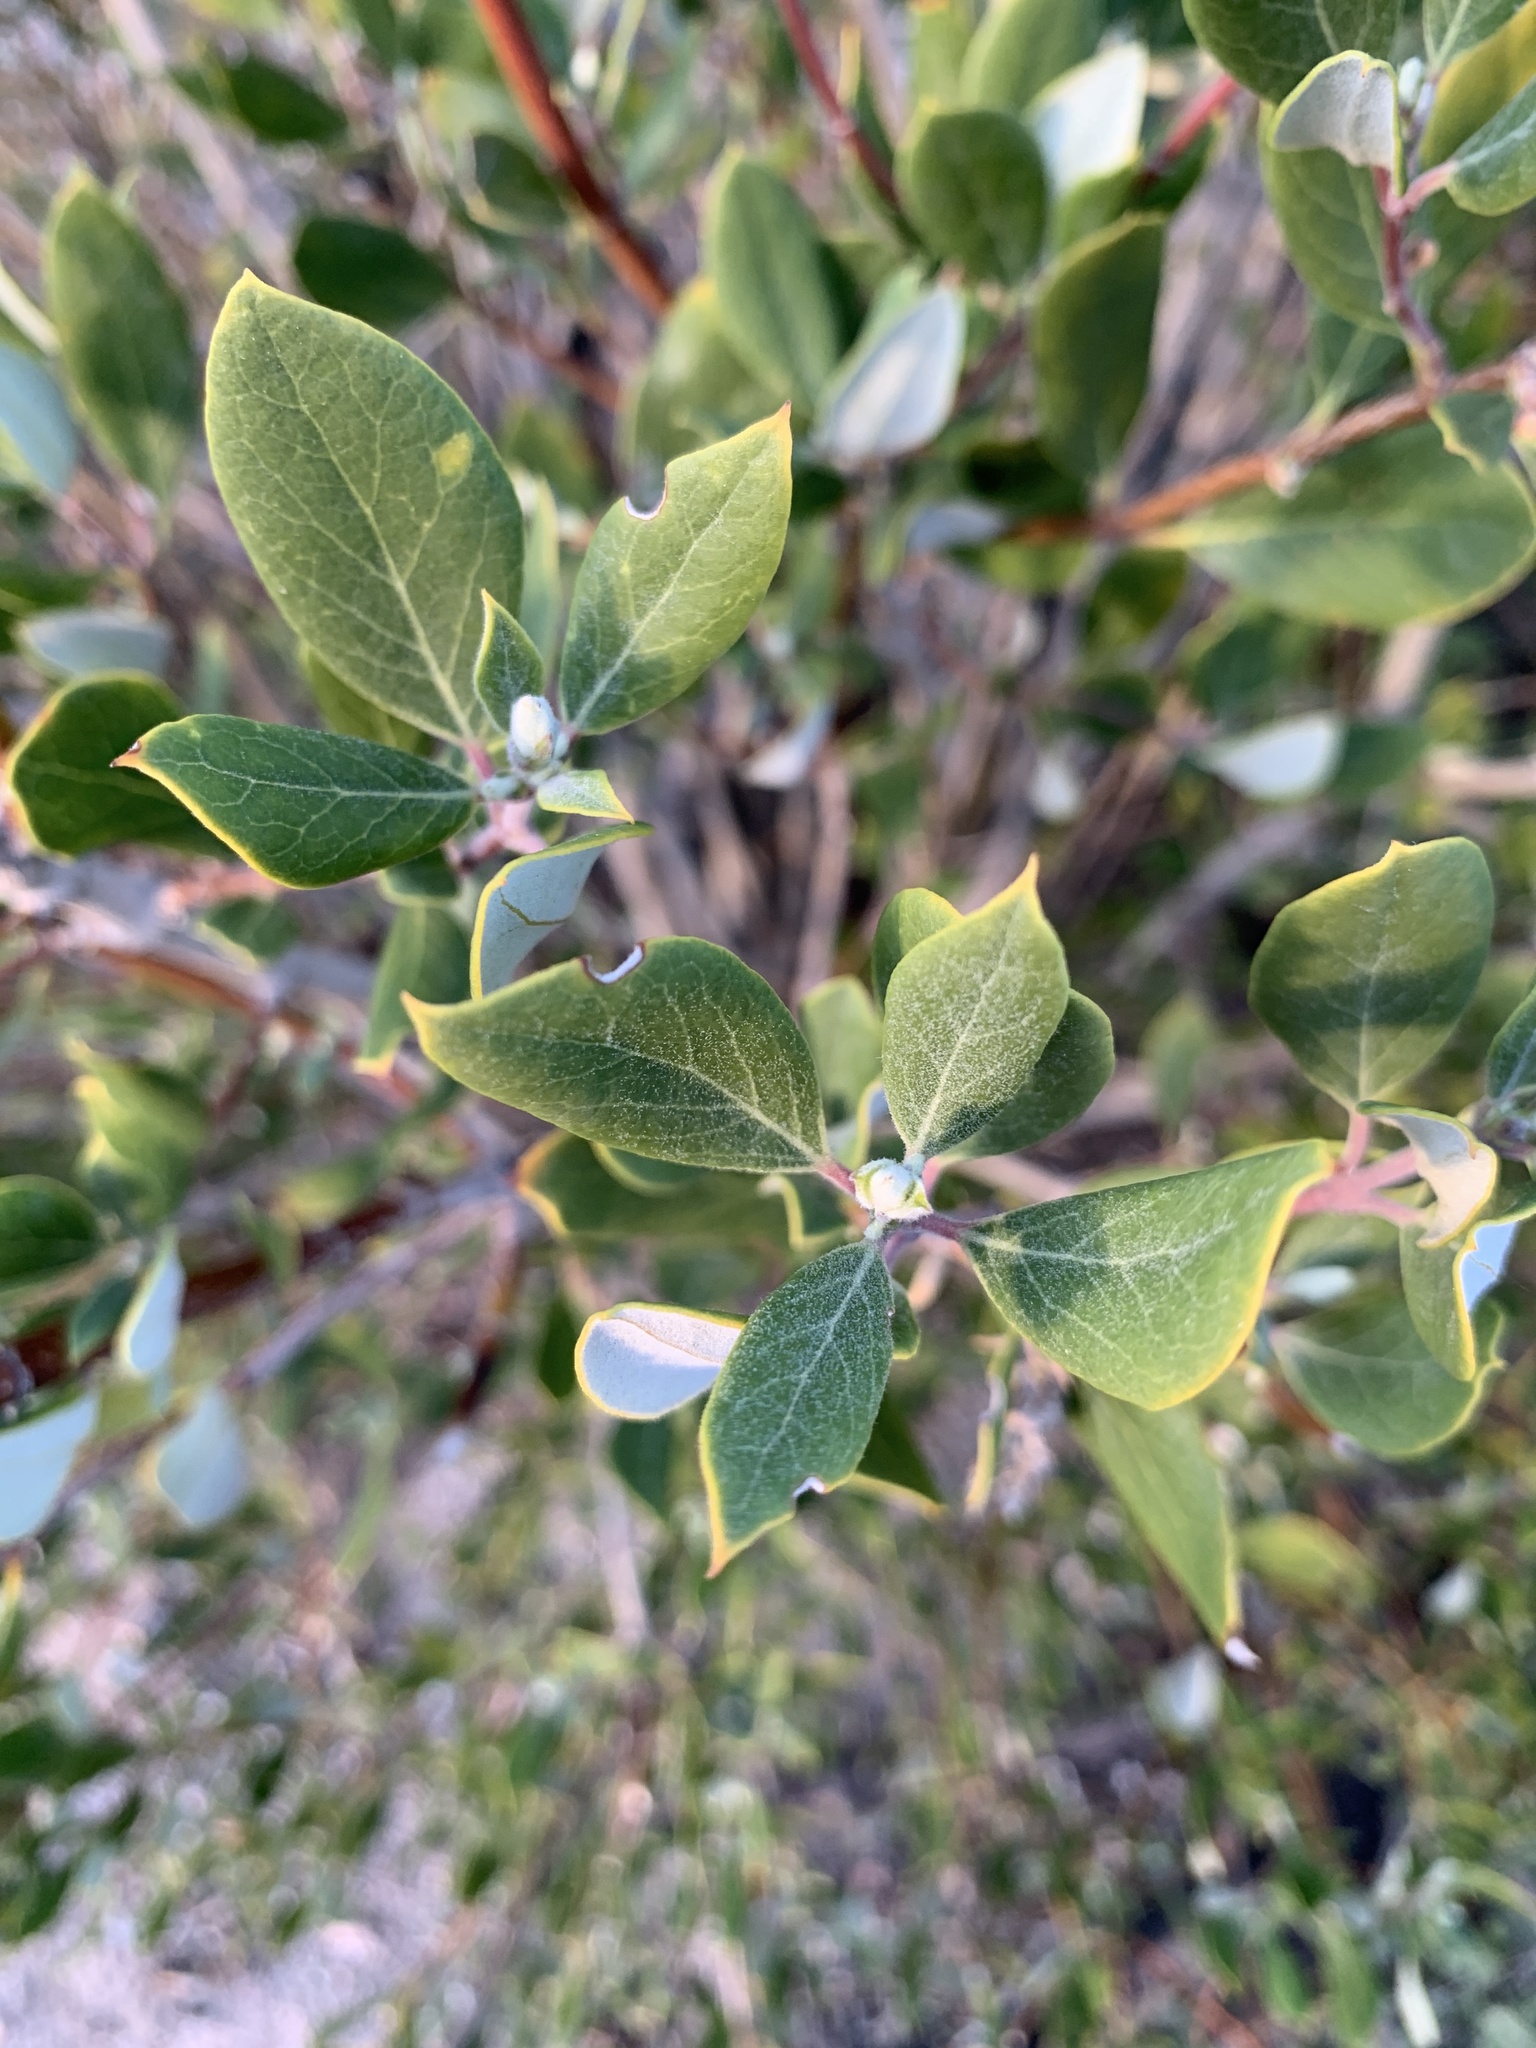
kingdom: Plantae
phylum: Tracheophyta
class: Magnoliopsida
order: Garryales
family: Garryaceae
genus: Garrya
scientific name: Garrya veatchii
